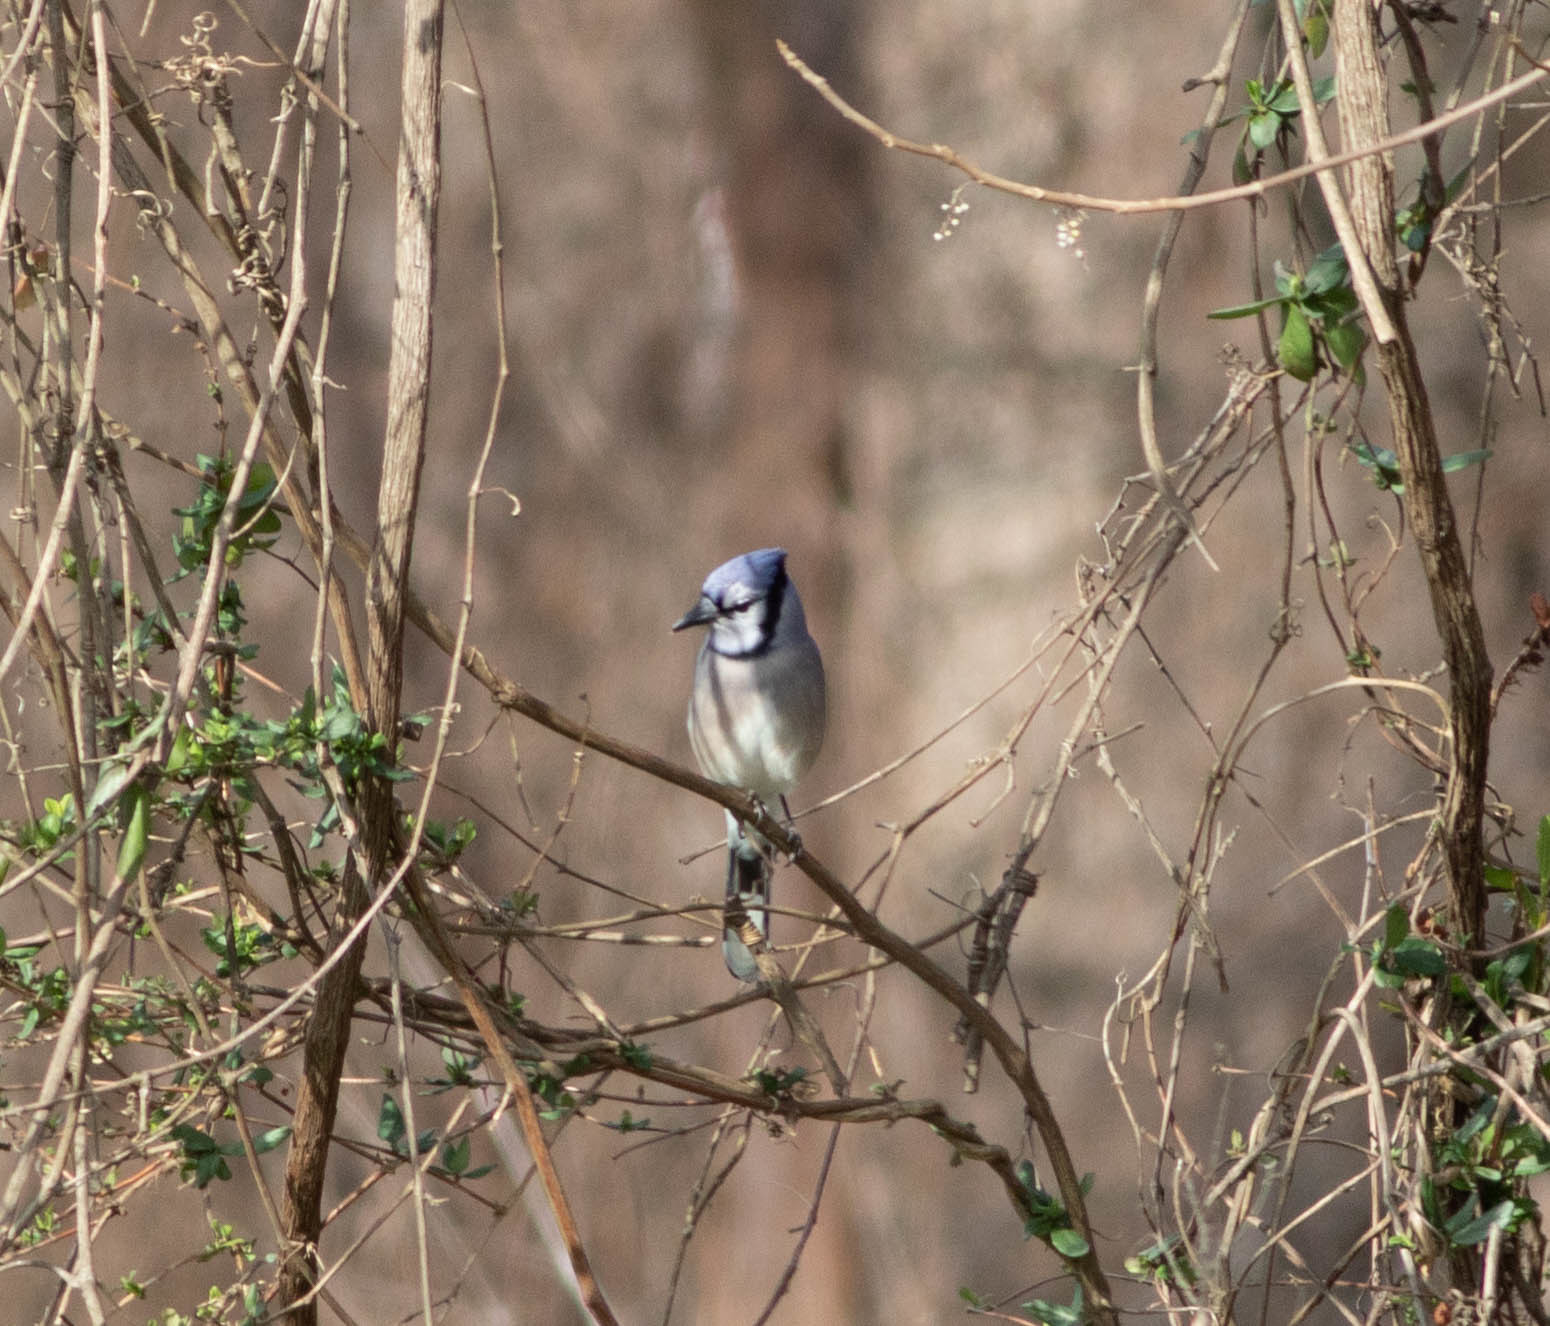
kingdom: Animalia
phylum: Chordata
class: Aves
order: Passeriformes
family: Corvidae
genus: Cyanocitta
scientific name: Cyanocitta cristata
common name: Blue jay
